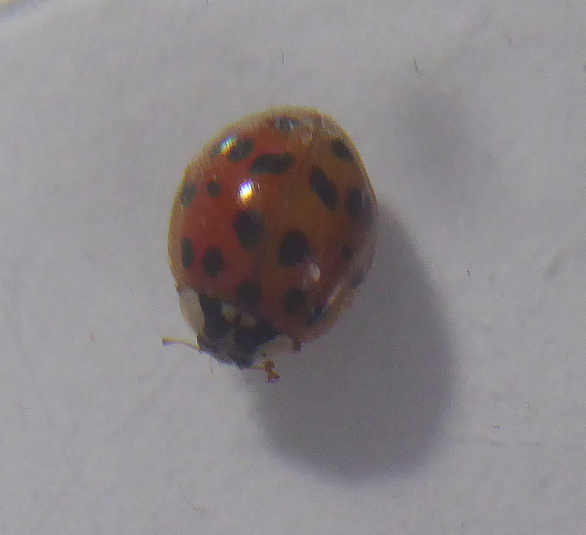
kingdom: Animalia
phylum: Arthropoda
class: Insecta
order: Coleoptera
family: Coccinellidae
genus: Harmonia
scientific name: Harmonia axyridis
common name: Harlequin ladybird
